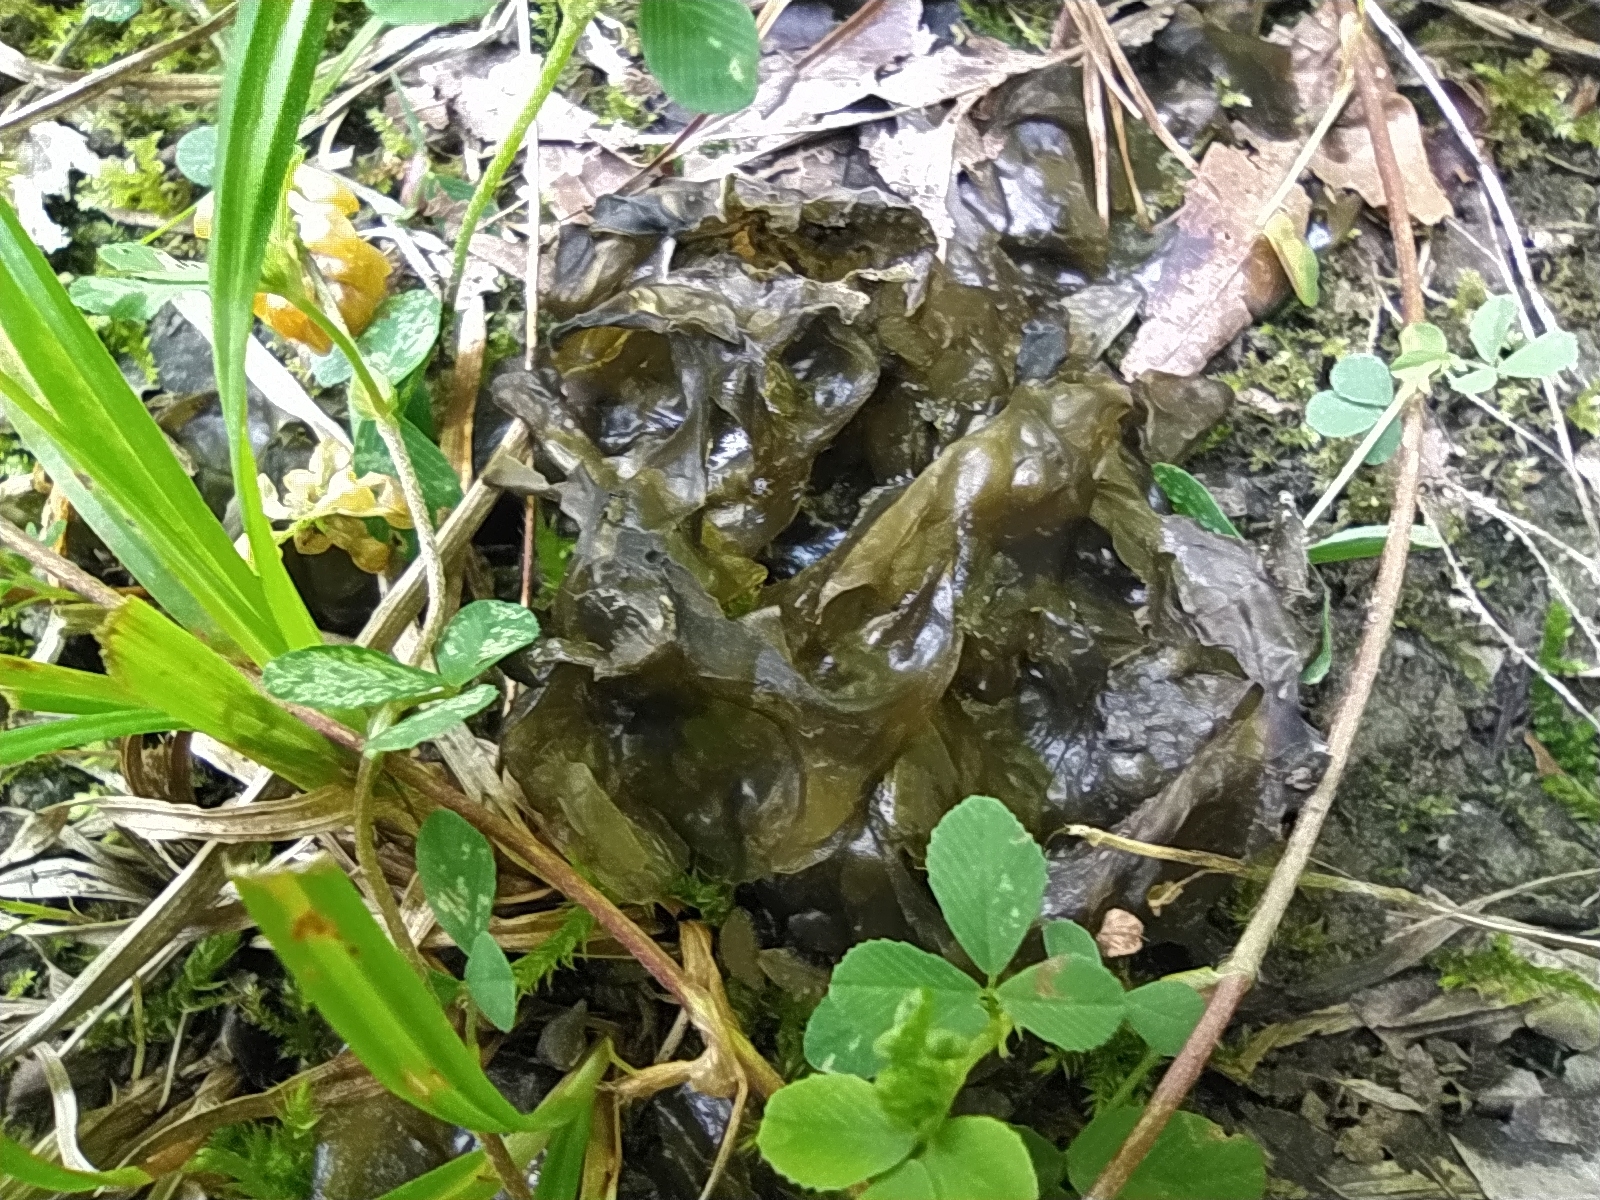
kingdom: Bacteria
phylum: Cyanobacteria
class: Cyanobacteriia
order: Cyanobacteriales
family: Nostocaceae
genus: Nostoc
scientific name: Nostoc commune
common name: Star jelly
